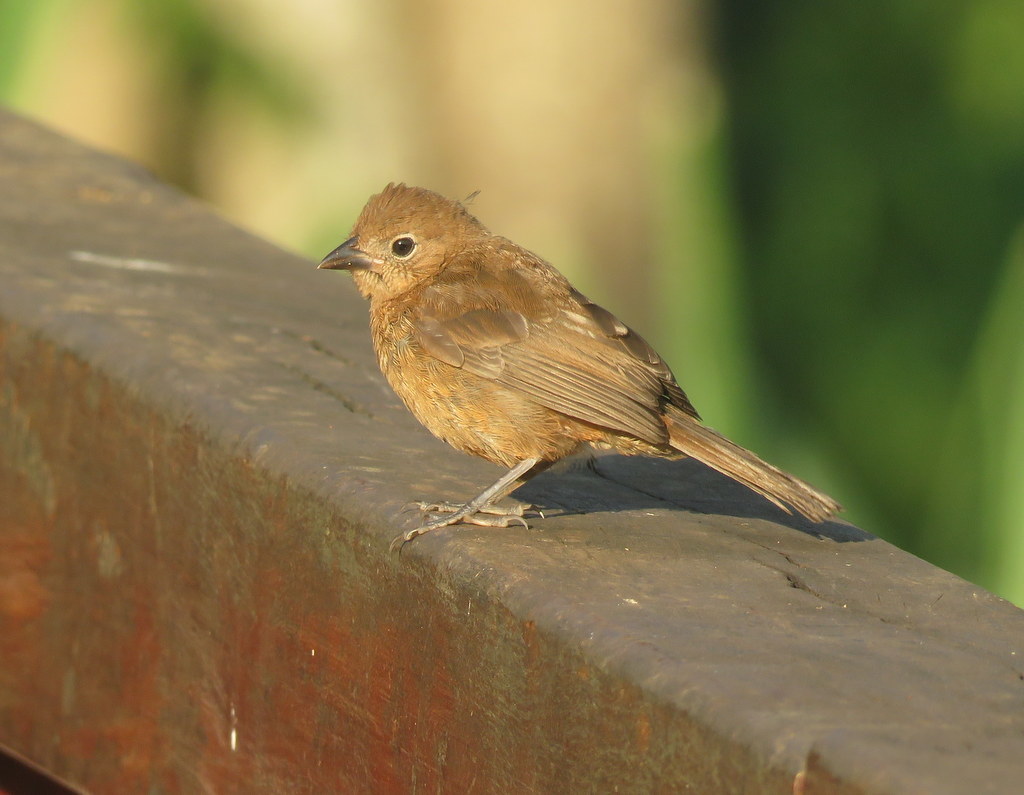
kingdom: Animalia
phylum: Chordata
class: Aves
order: Passeriformes
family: Thraupidae
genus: Coryphospingus
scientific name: Coryphospingus cucullatus
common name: Red pileated finch
